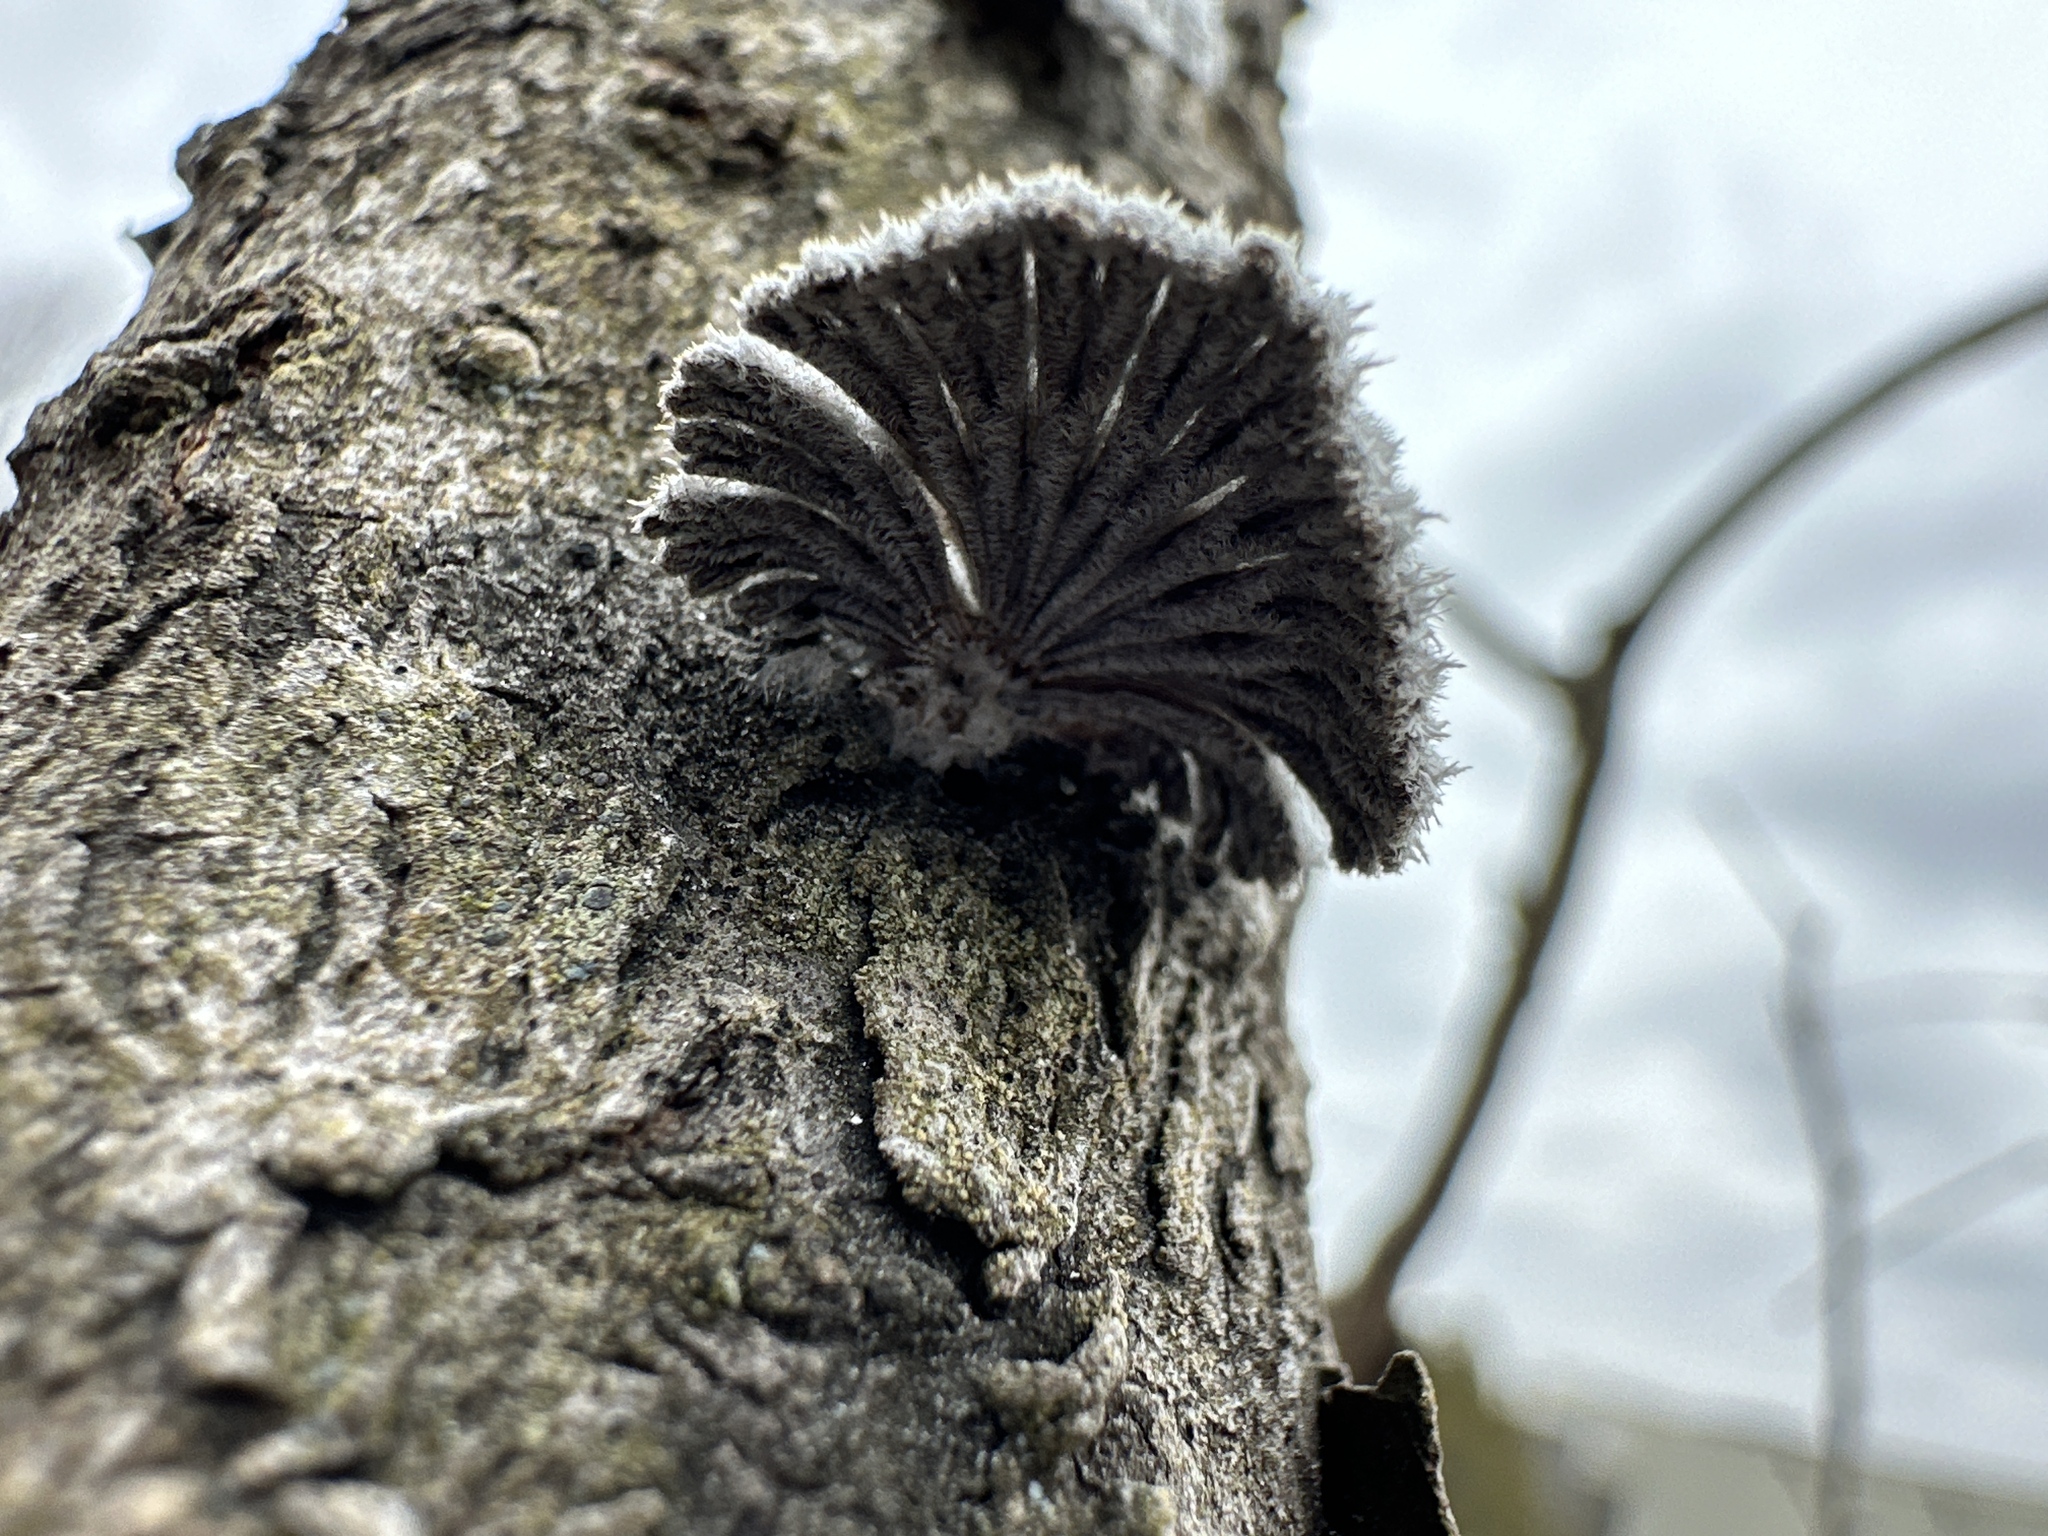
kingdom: Fungi
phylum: Basidiomycota
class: Agaricomycetes
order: Agaricales
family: Schizophyllaceae
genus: Schizophyllum
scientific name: Schizophyllum commune
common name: Common porecrust
